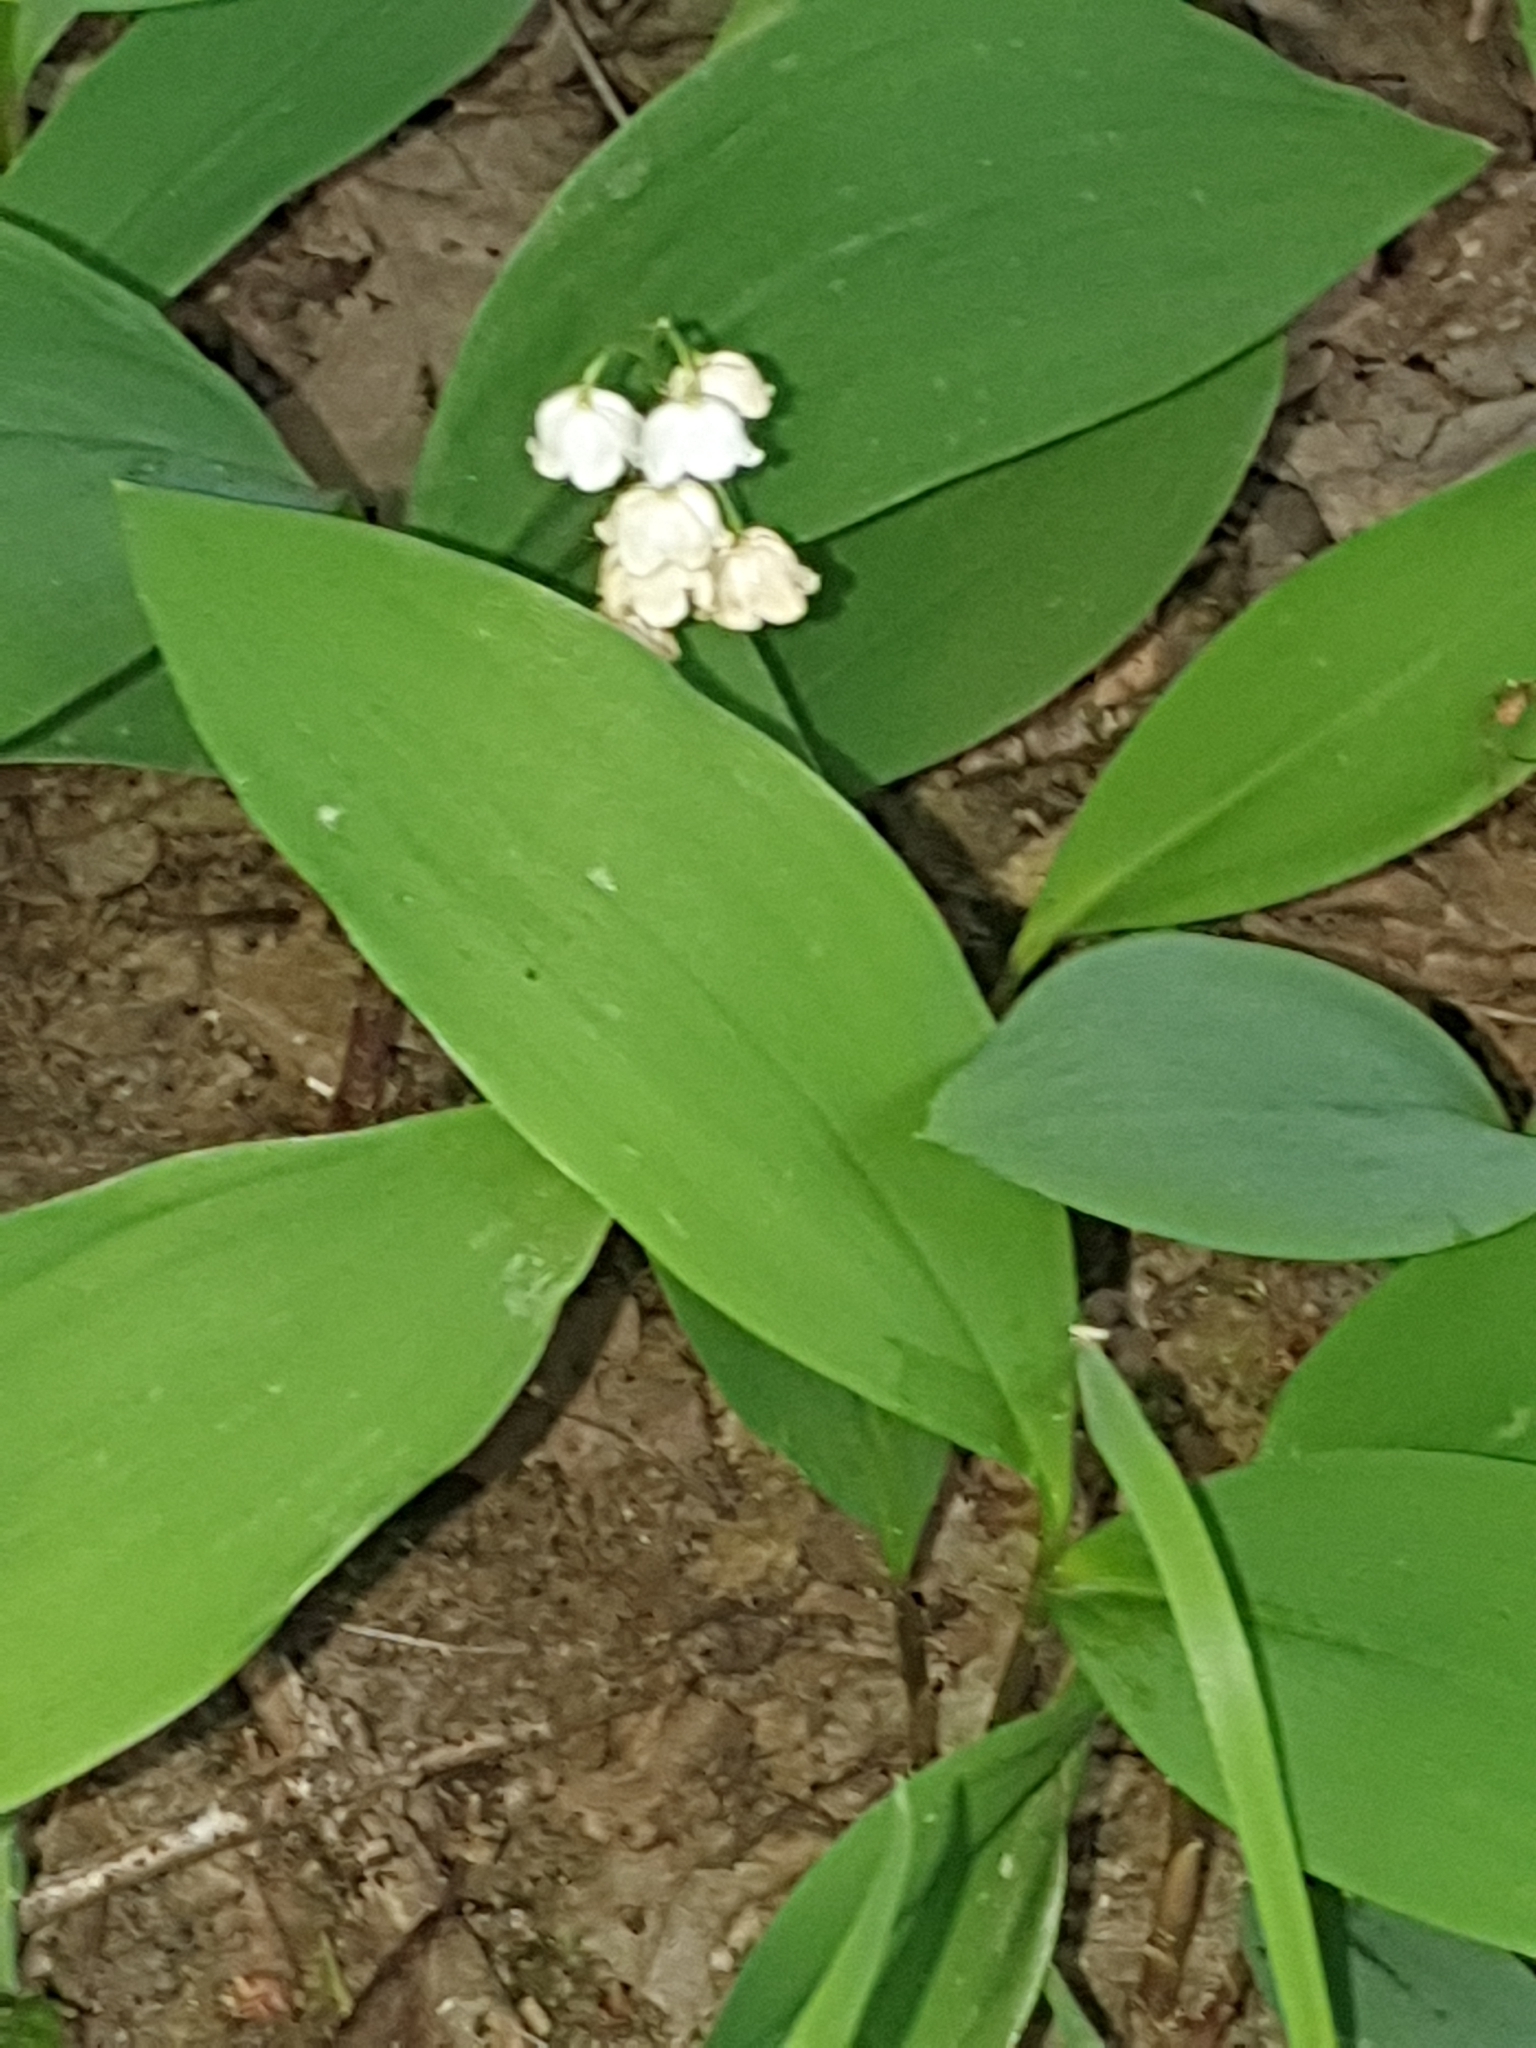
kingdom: Plantae
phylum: Tracheophyta
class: Liliopsida
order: Asparagales
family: Asparagaceae
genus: Convallaria
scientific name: Convallaria majalis
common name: Lily-of-the-valley
